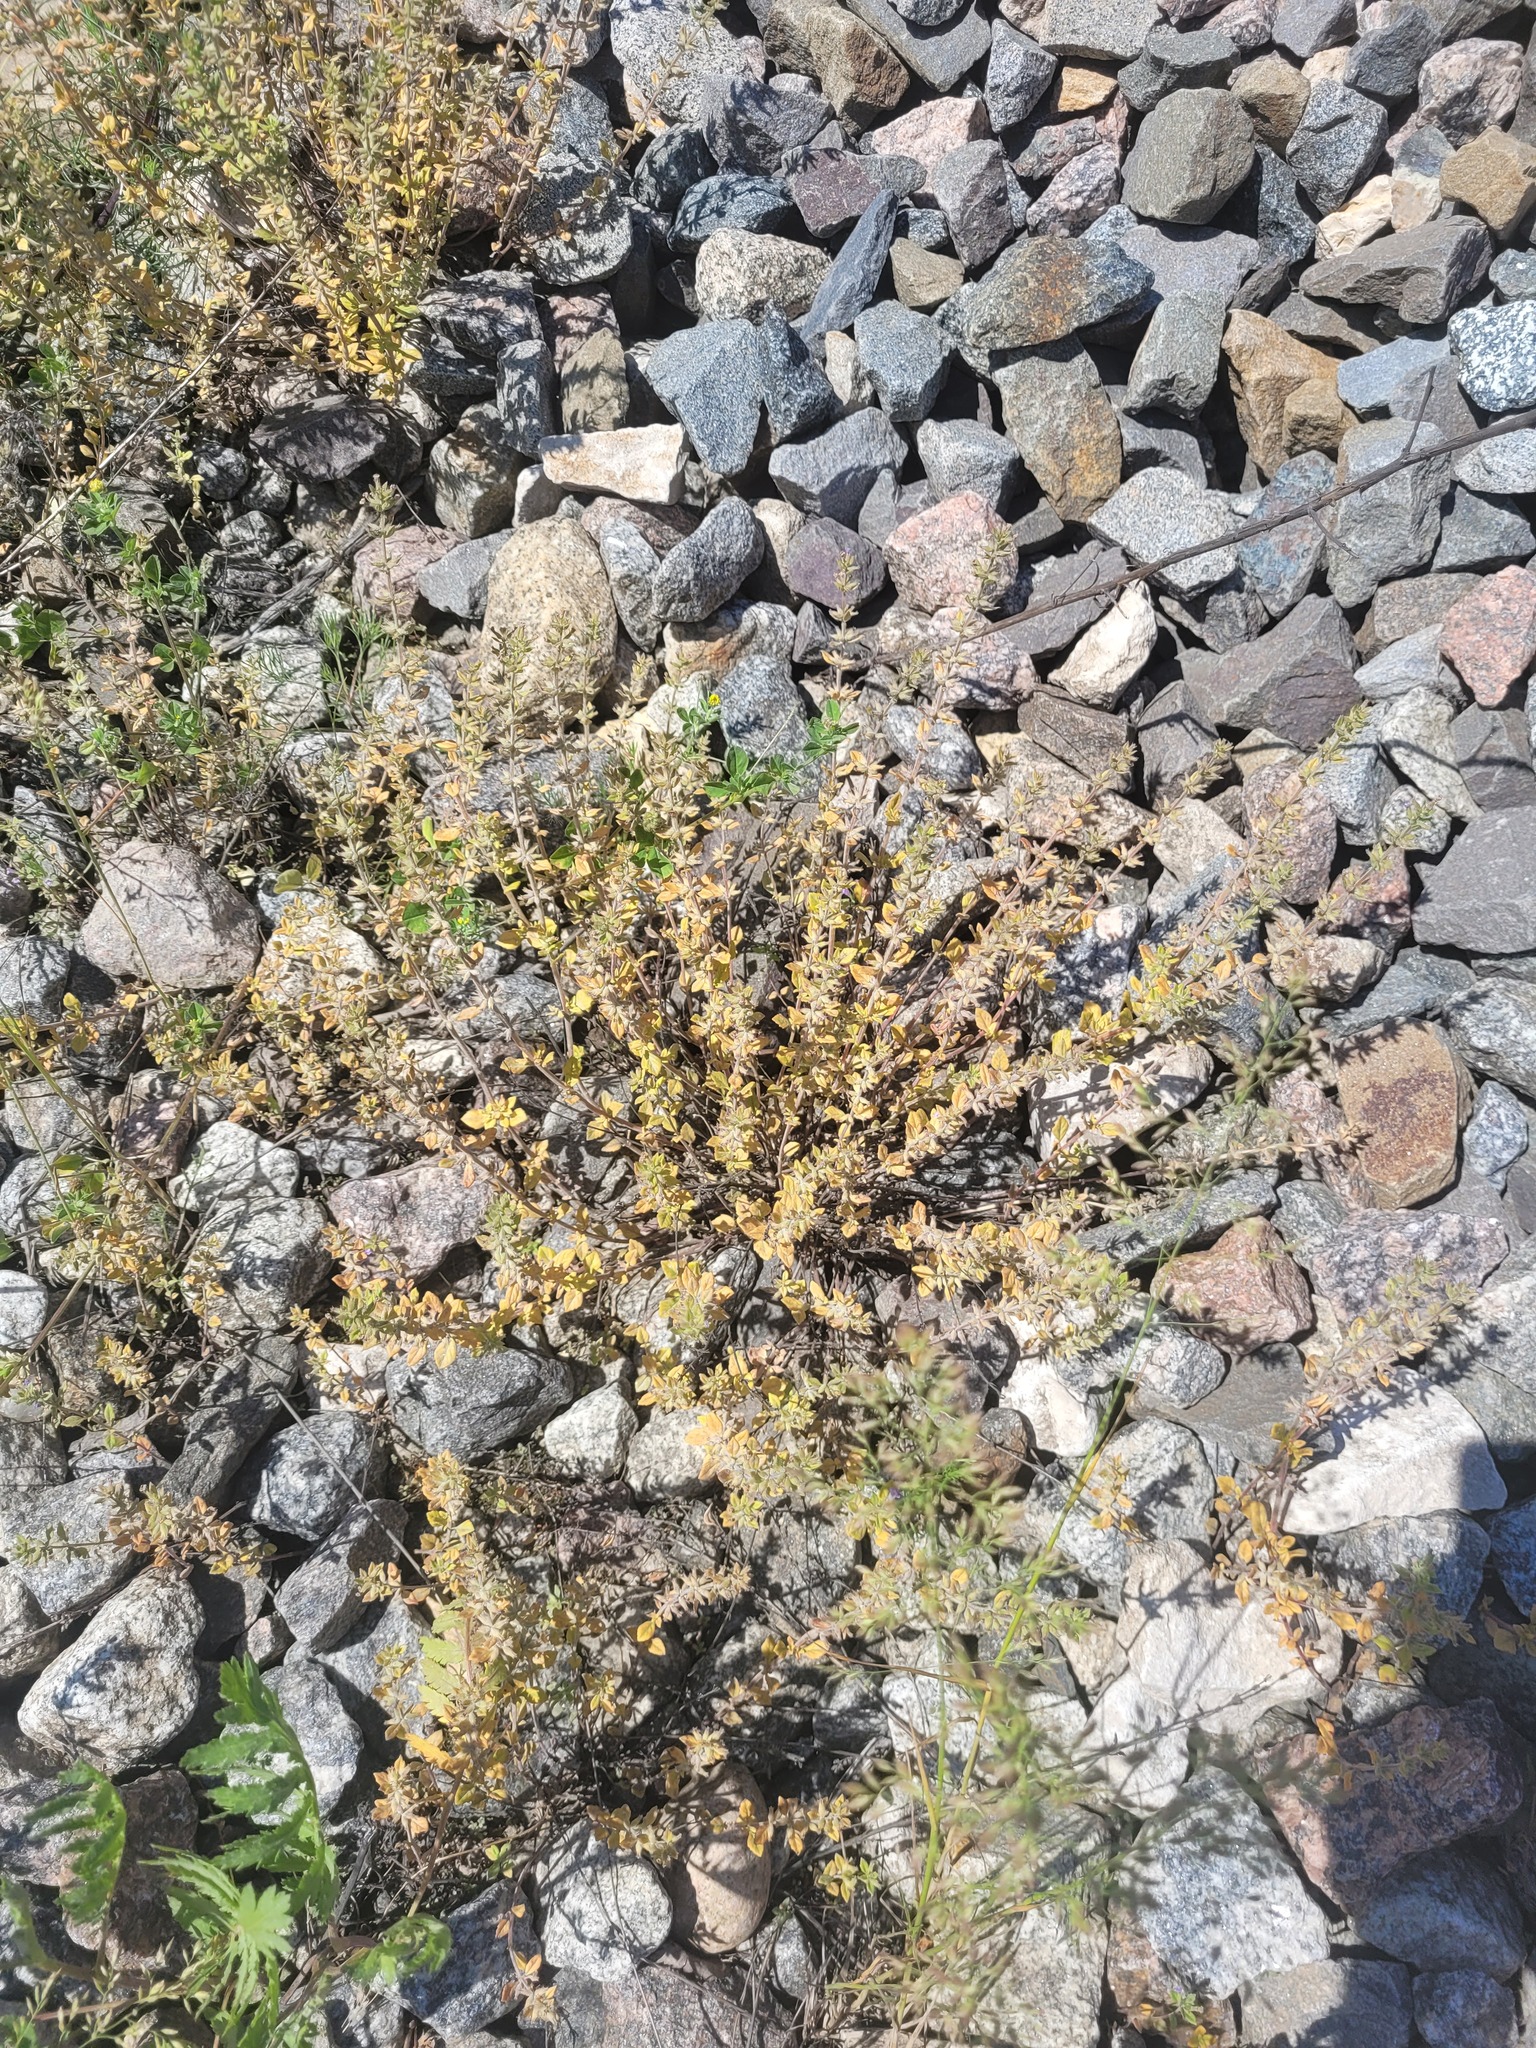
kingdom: Plantae
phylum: Tracheophyta
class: Magnoliopsida
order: Lamiales
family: Lamiaceae
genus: Clinopodium
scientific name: Clinopodium acinos
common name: Basil thyme
